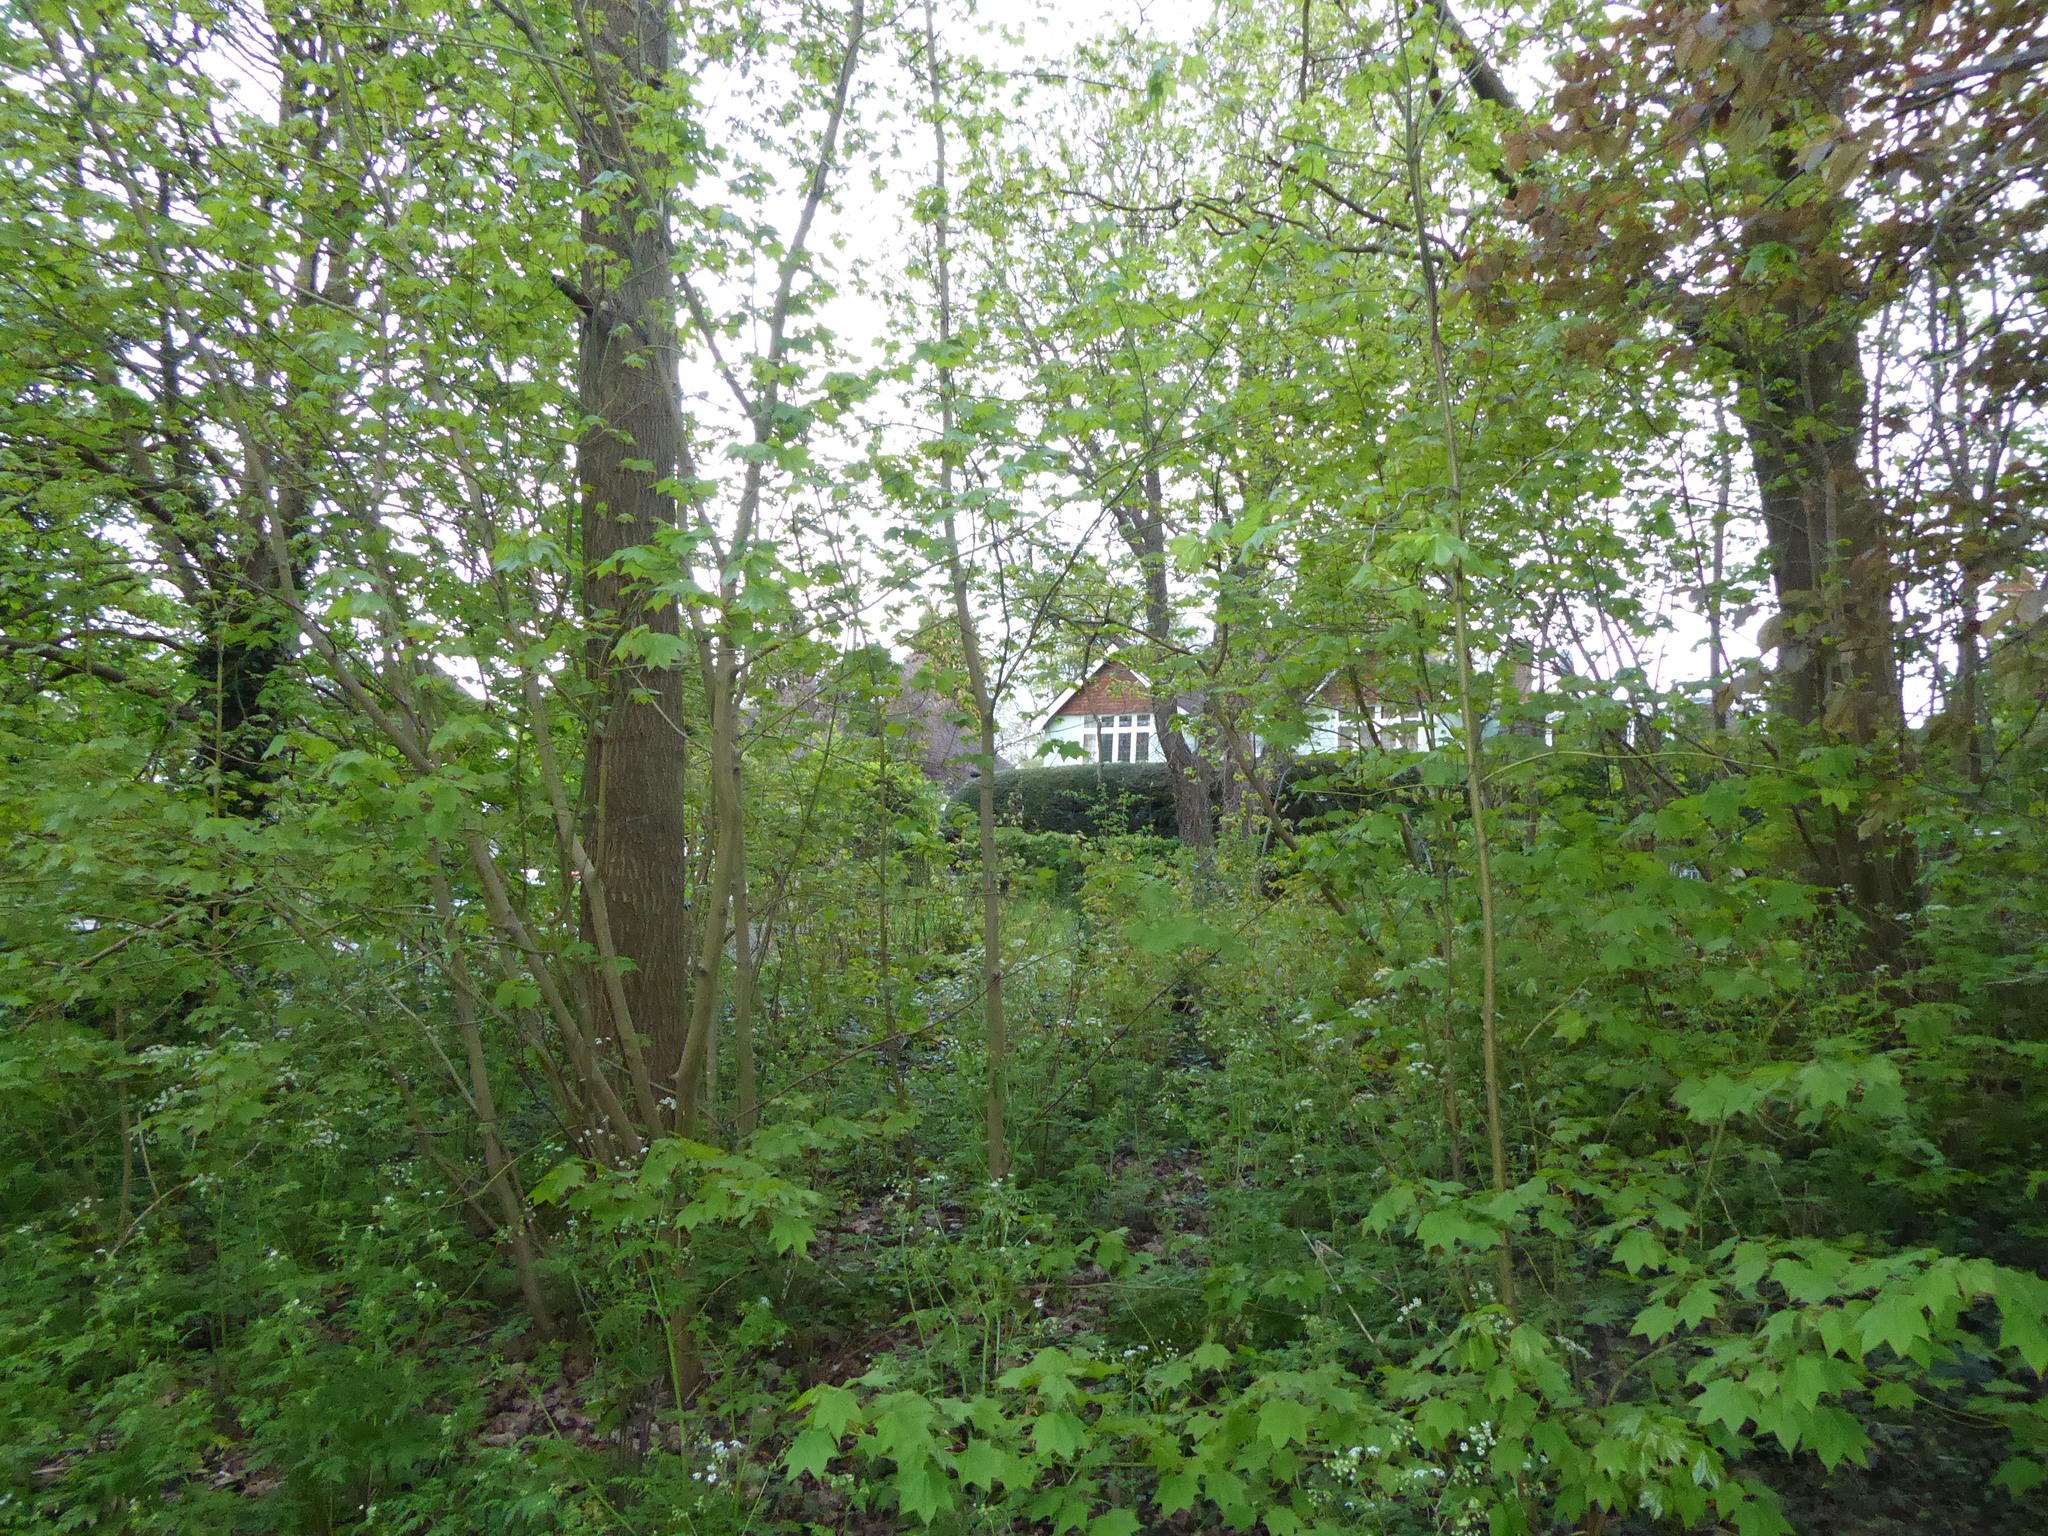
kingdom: Plantae
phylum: Tracheophyta
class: Magnoliopsida
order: Sapindales
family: Sapindaceae
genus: Acer
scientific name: Acer cappadocicum
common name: Cappadocian maple
